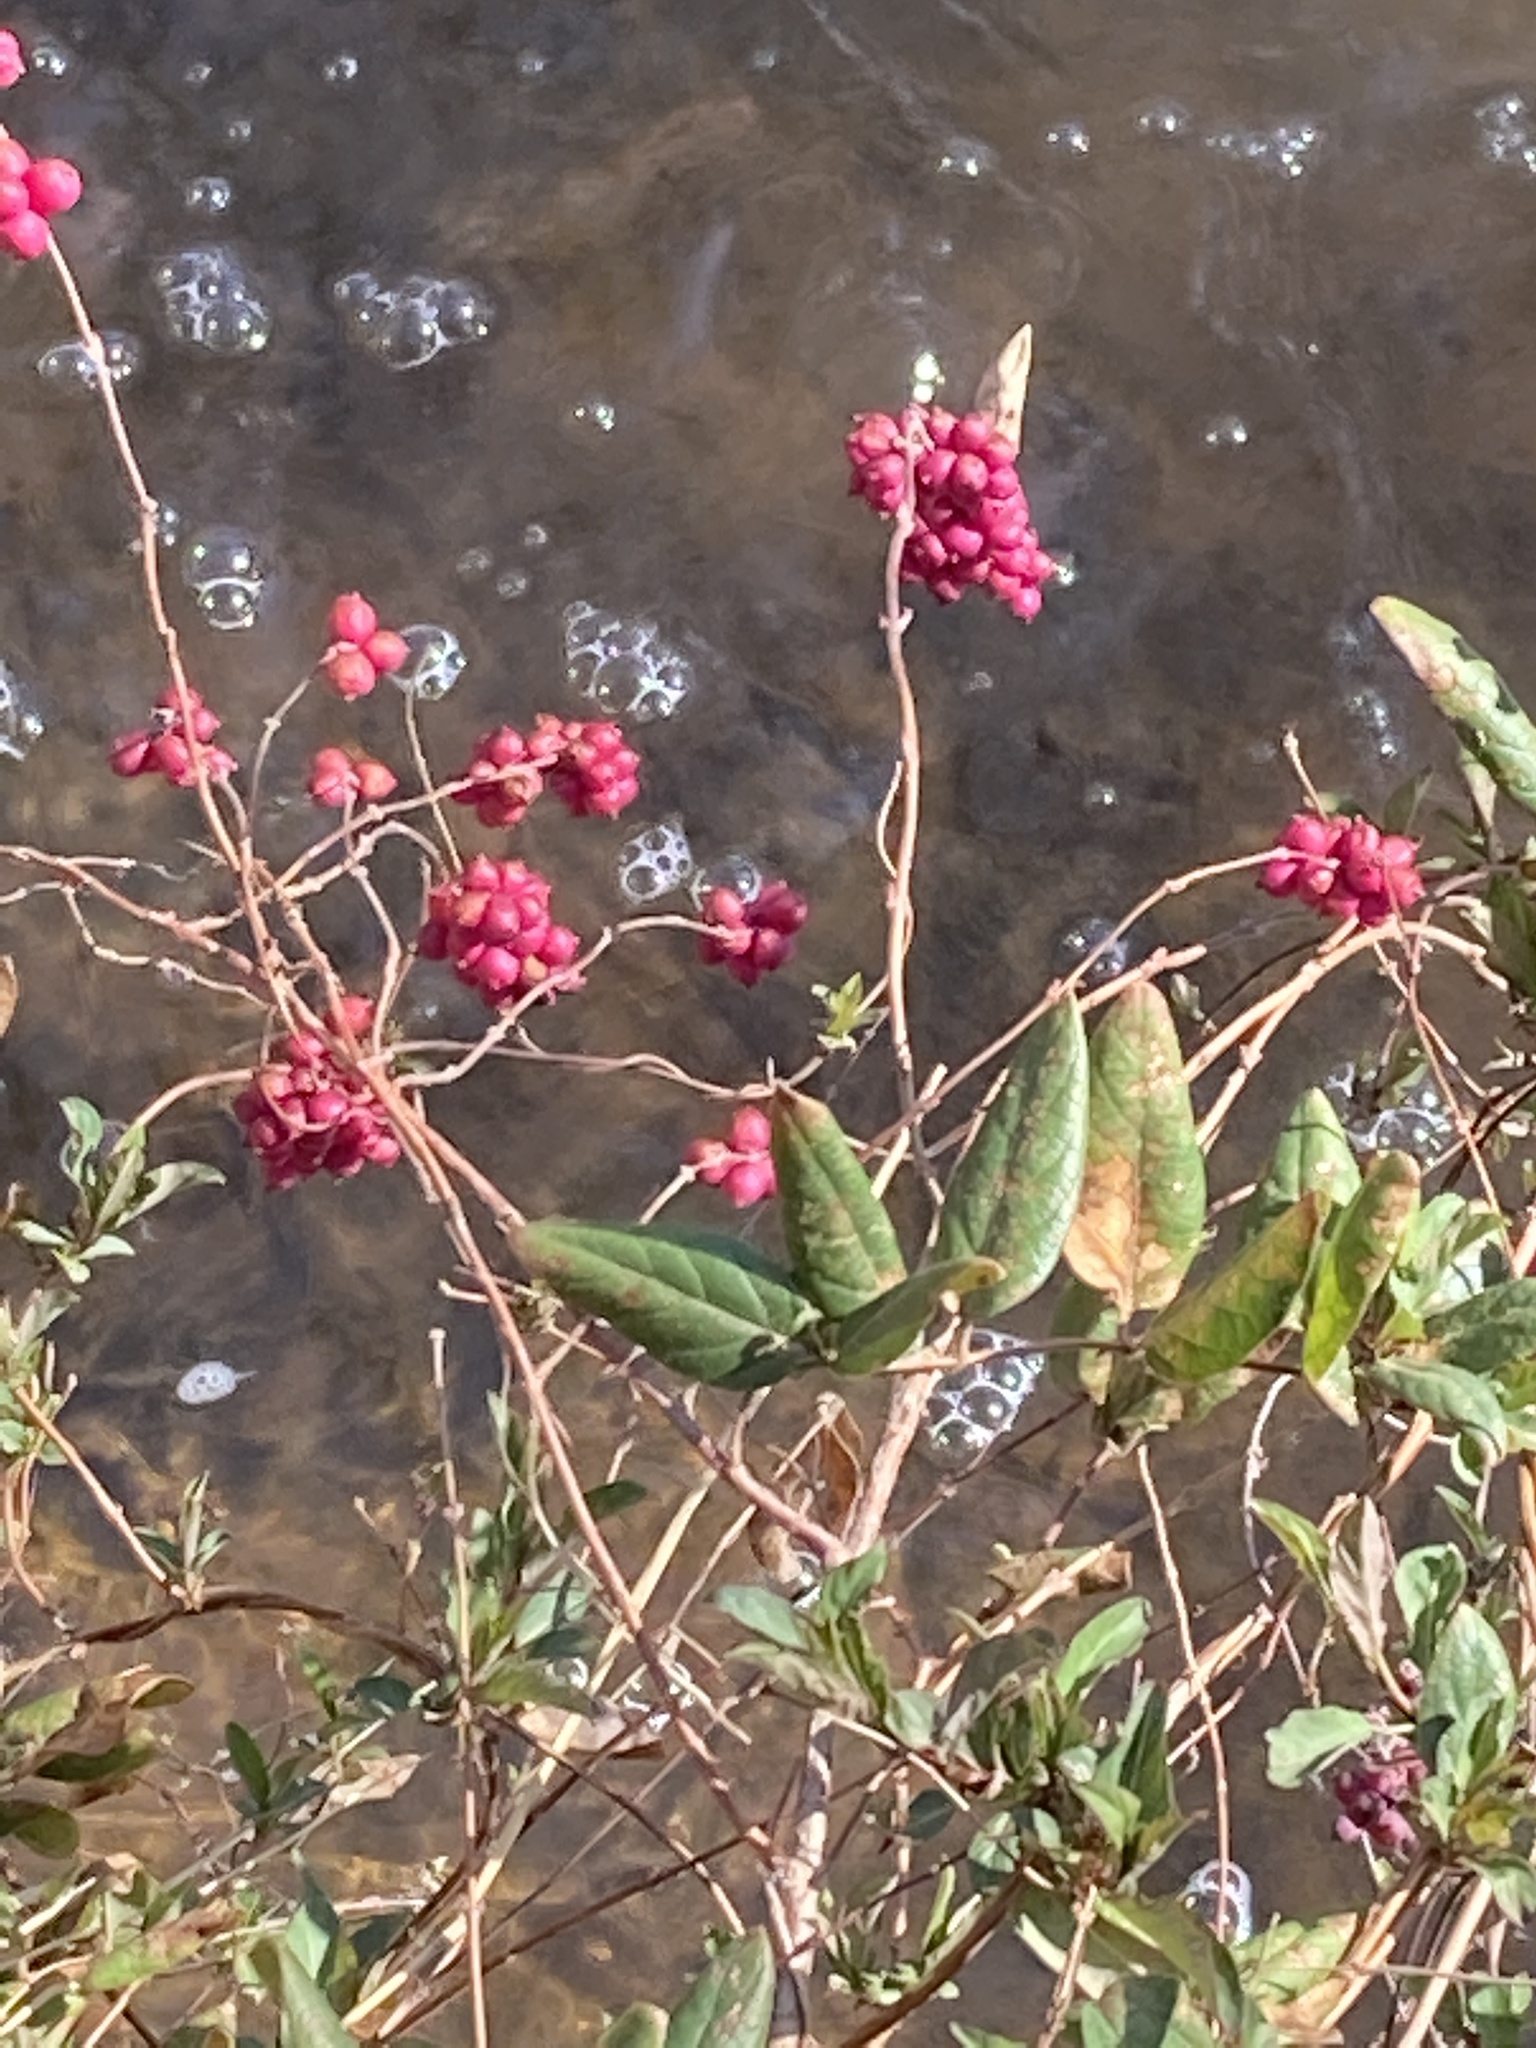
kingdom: Plantae
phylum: Tracheophyta
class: Magnoliopsida
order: Dipsacales
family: Caprifoliaceae
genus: Symphoricarpos
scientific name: Symphoricarpos orbiculatus
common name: Coralberry
